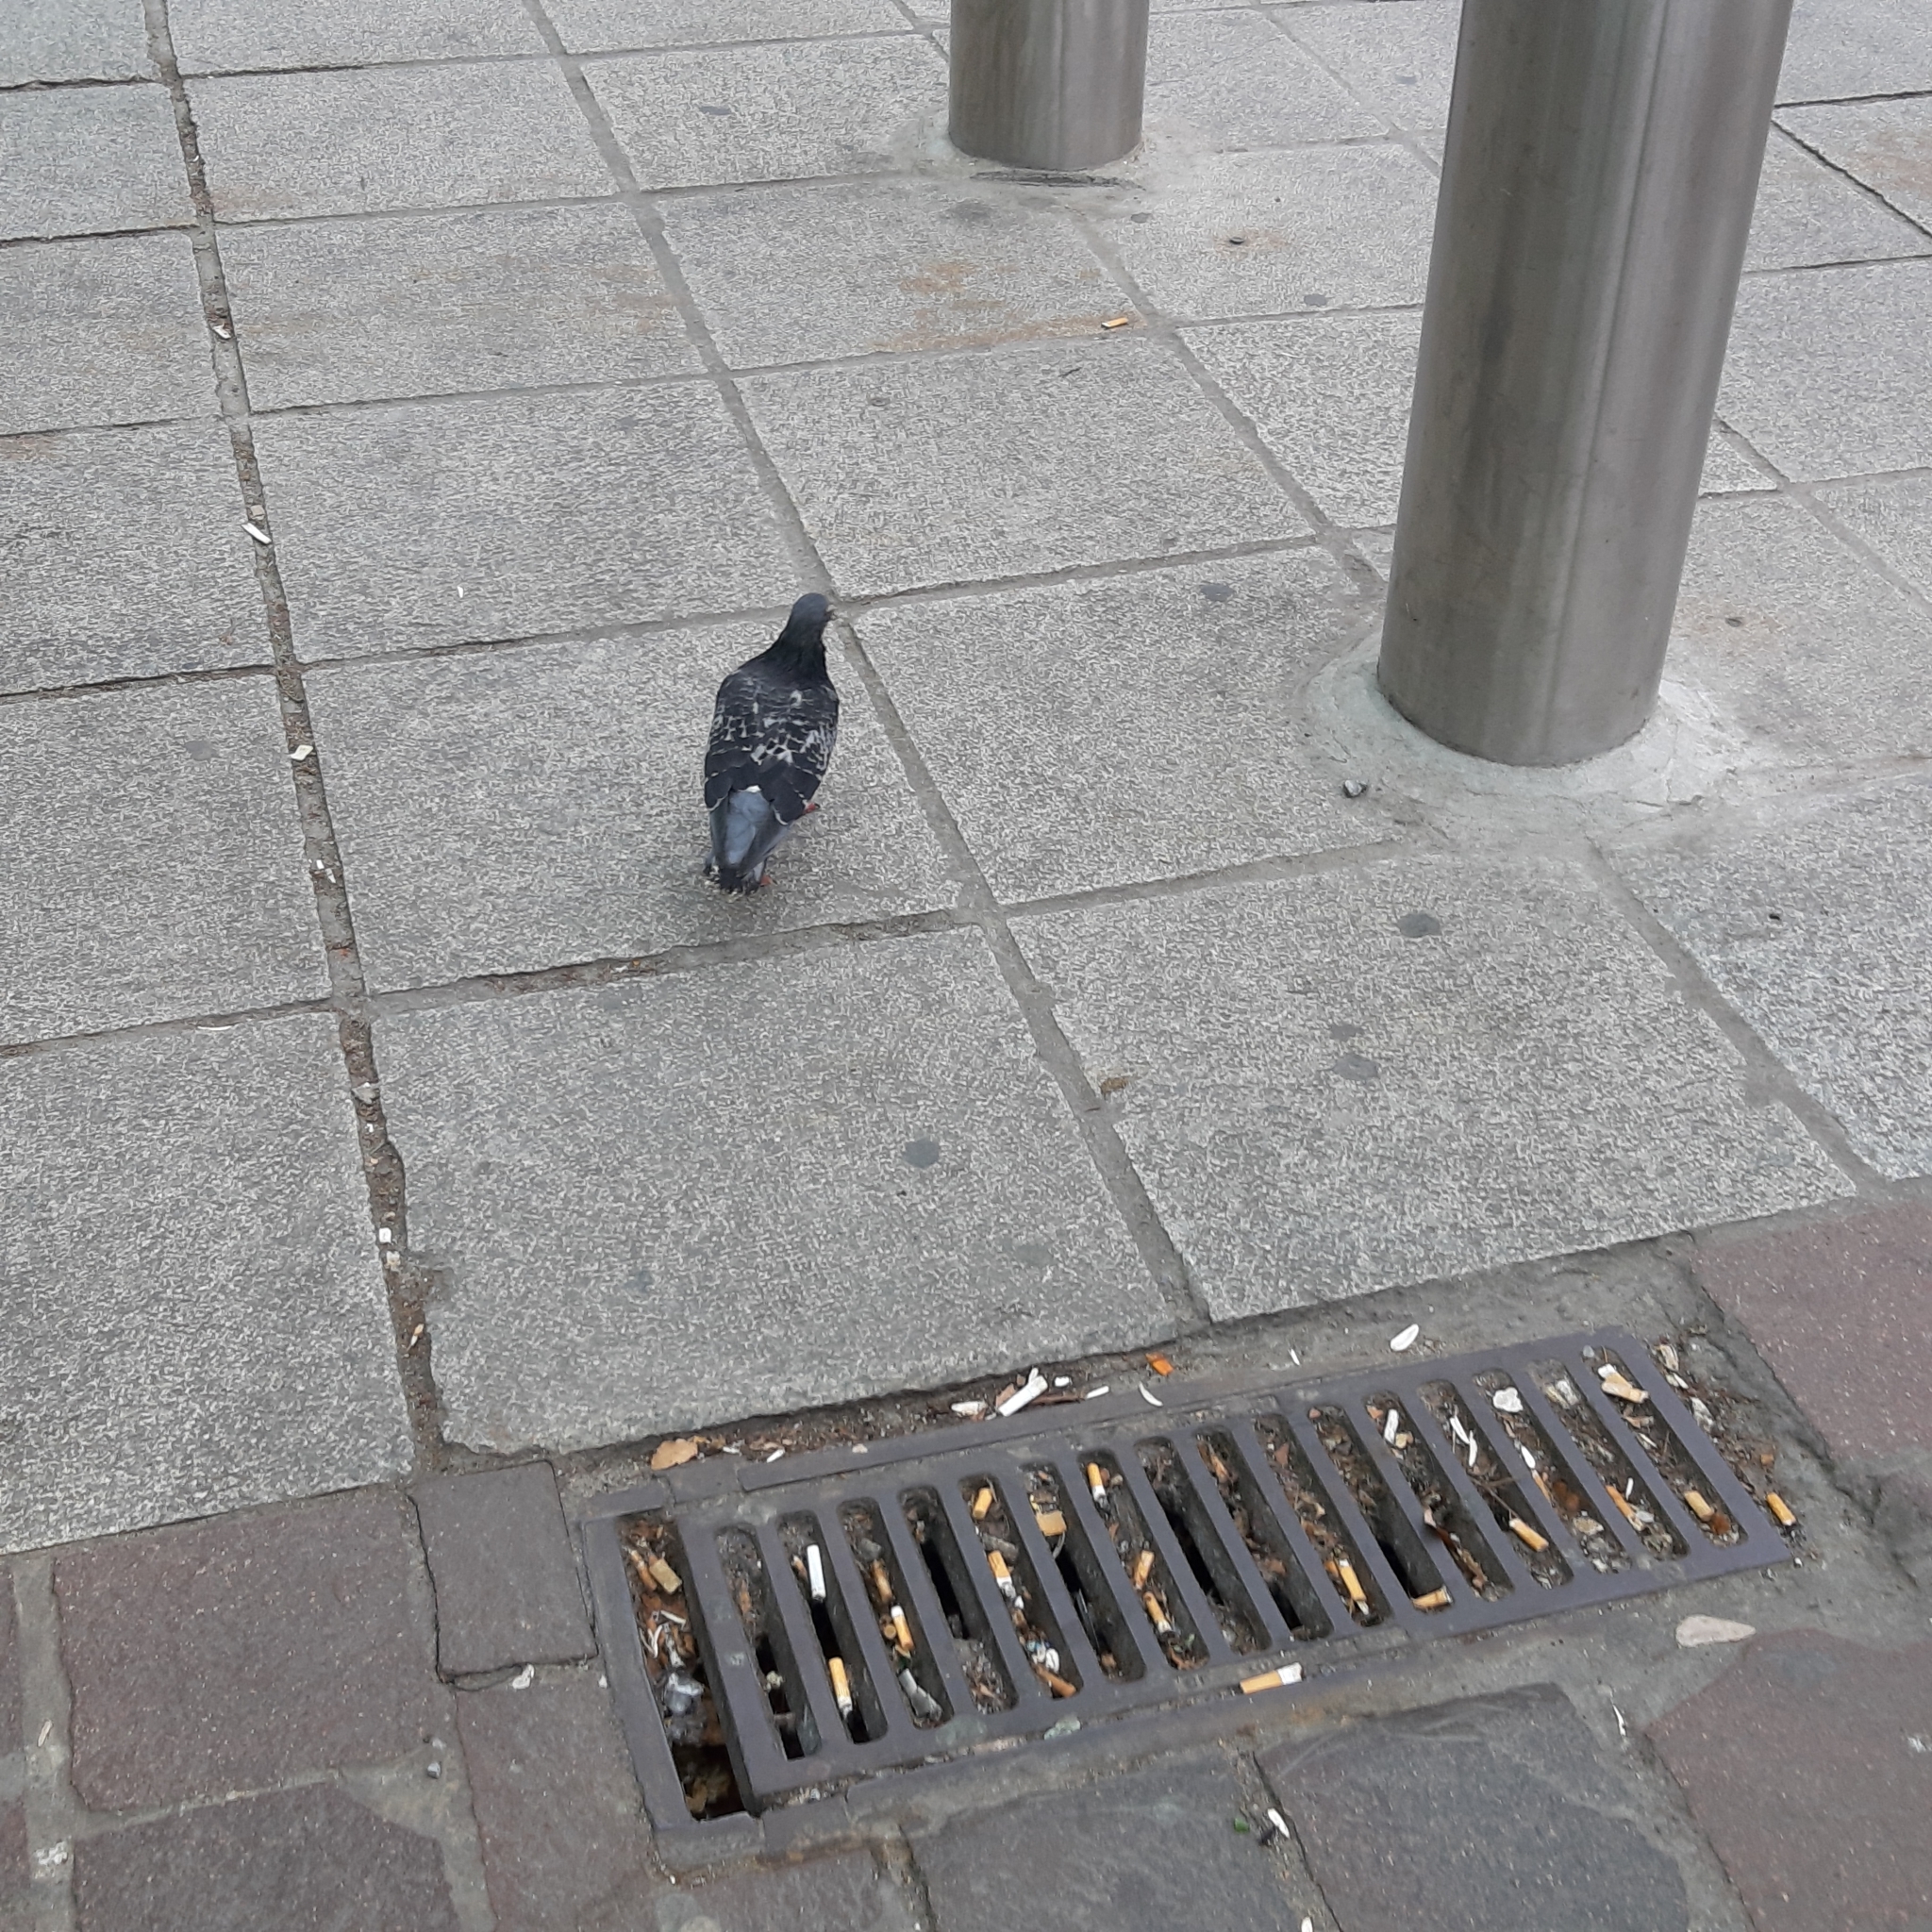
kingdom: Animalia
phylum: Chordata
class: Aves
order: Columbiformes
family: Columbidae
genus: Columba
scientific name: Columba livia
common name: Rock pigeon
